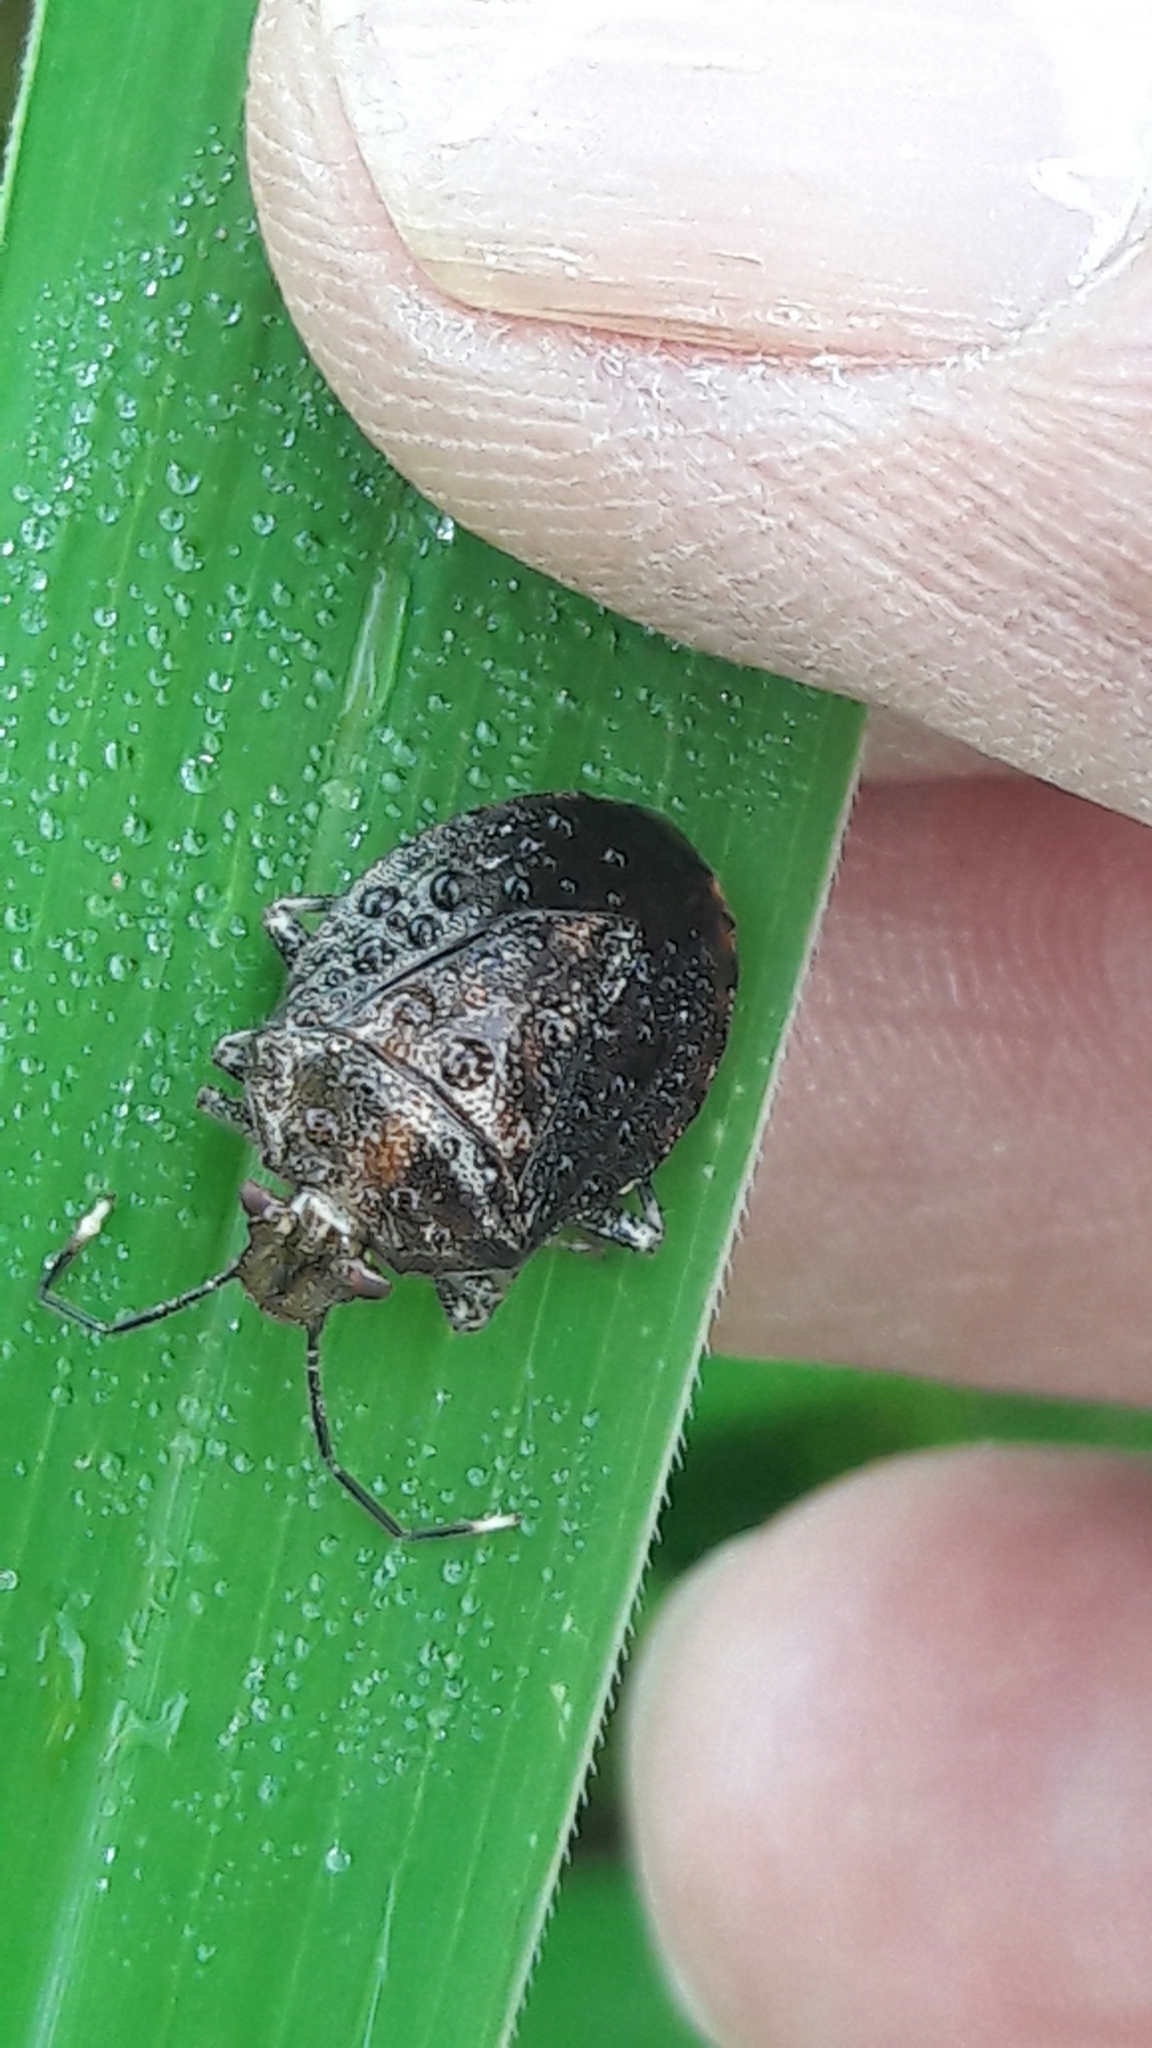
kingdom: Animalia
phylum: Arthropoda
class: Insecta
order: Hemiptera
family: Pentatomidae
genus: Antiteuchus
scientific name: Antiteuchus tripterus
